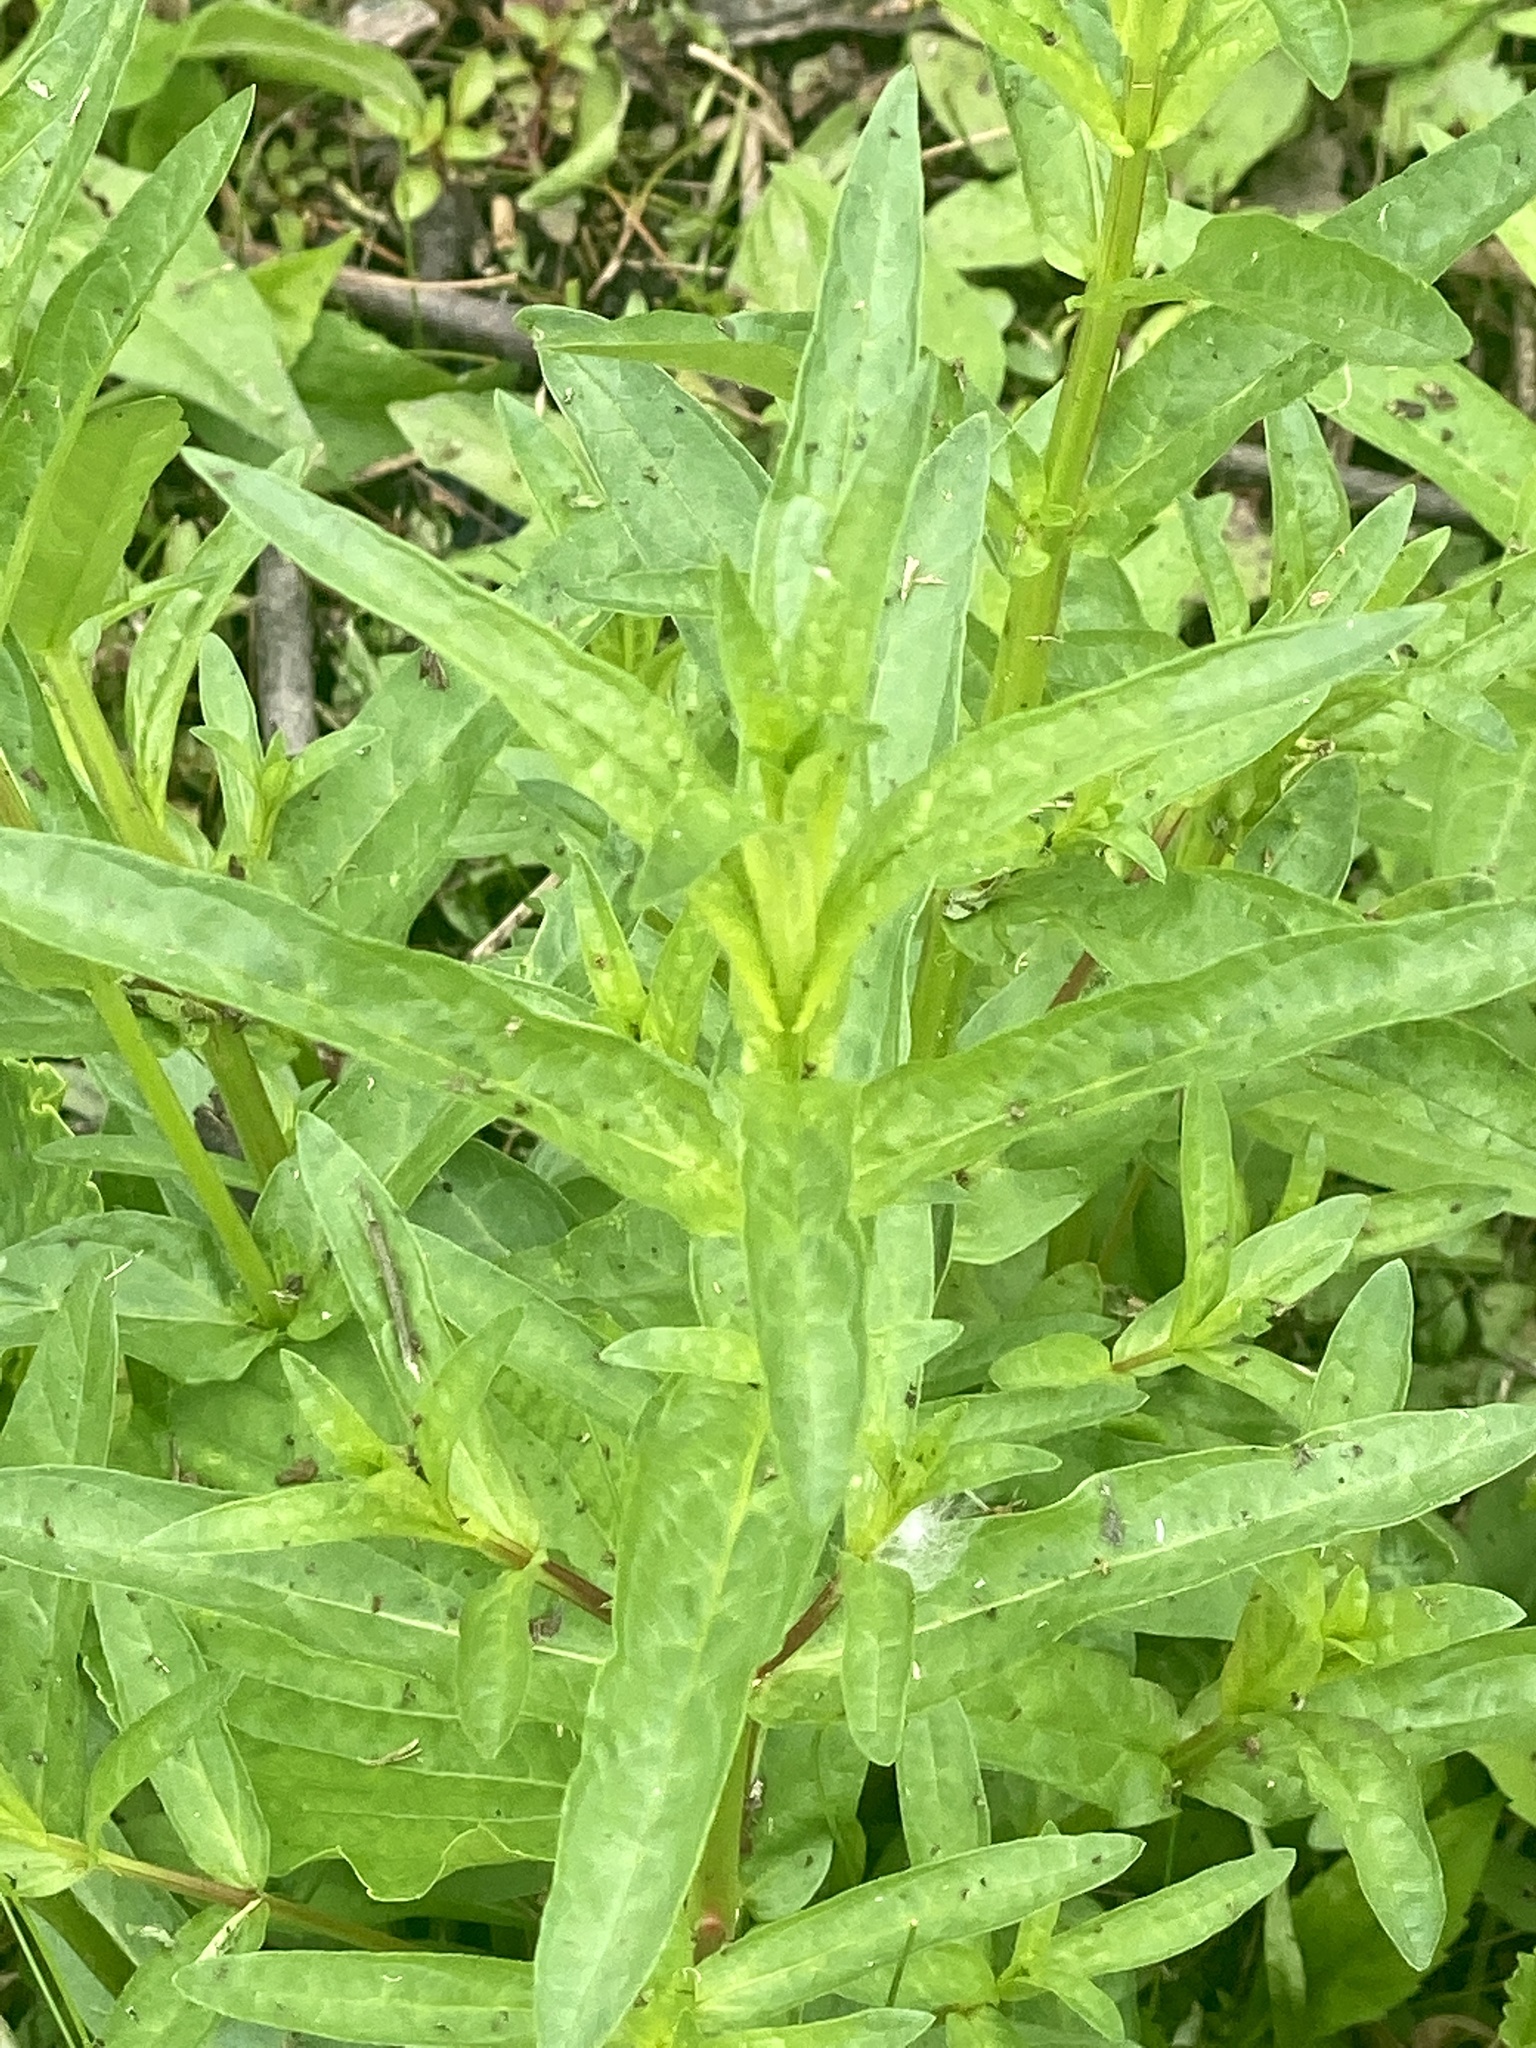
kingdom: Plantae
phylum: Tracheophyta
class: Magnoliopsida
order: Myrtales
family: Lythraceae
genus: Lythrum
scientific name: Lythrum salicaria
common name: Purple loosestrife
